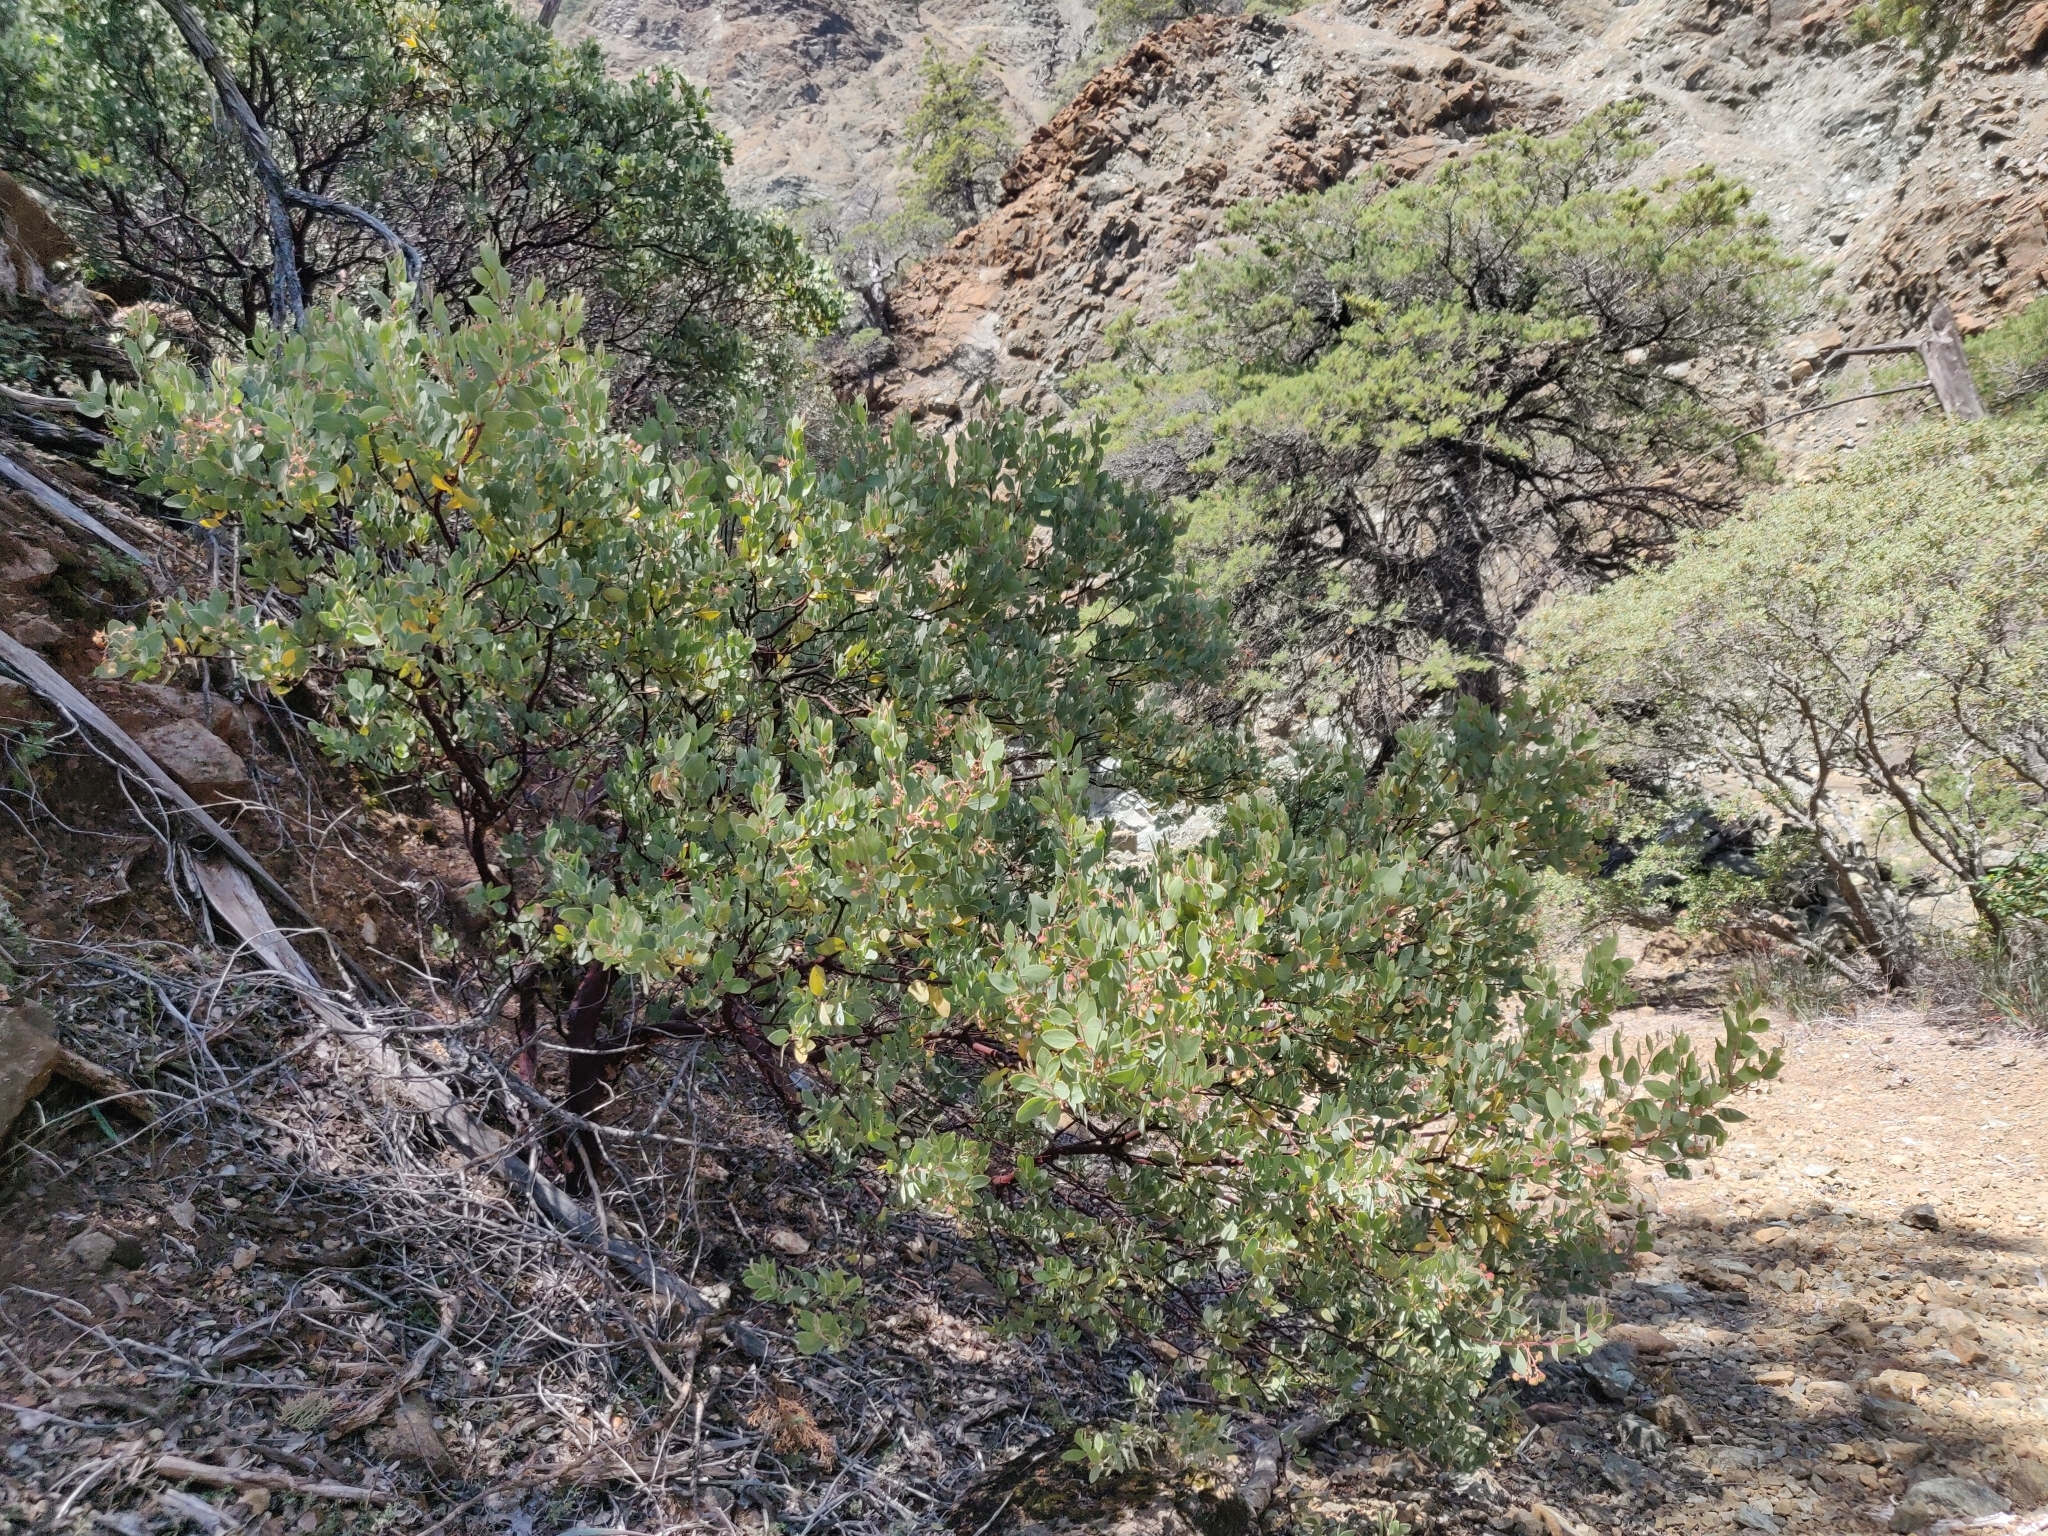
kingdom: Plantae
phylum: Tracheophyta
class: Magnoliopsida
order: Ericales
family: Ericaceae
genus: Arctostaphylos
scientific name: Arctostaphylos viscida
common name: White-leaf manzanita
